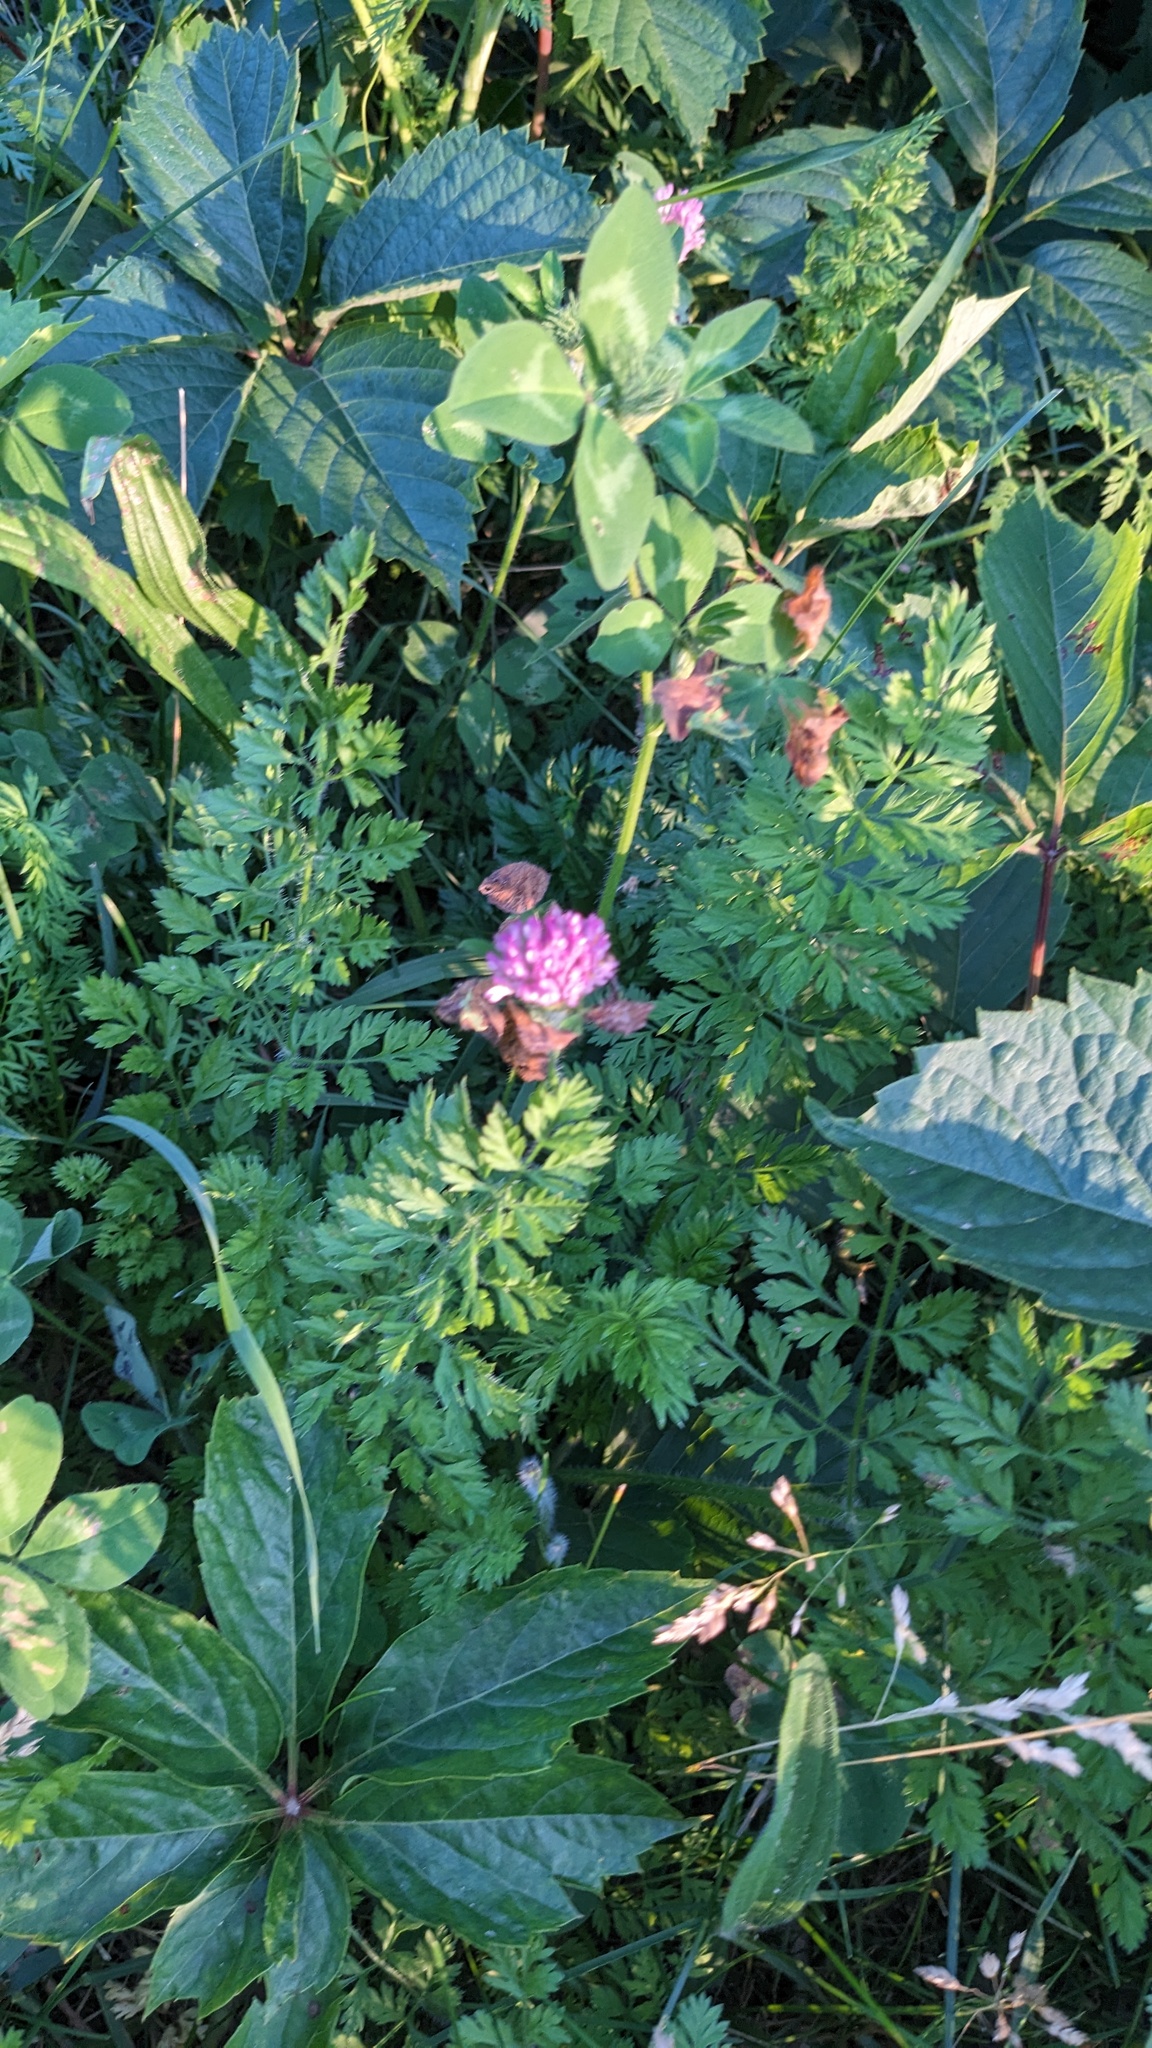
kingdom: Plantae
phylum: Tracheophyta
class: Magnoliopsida
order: Fabales
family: Fabaceae
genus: Trifolium
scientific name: Trifolium pratense
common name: Red clover
